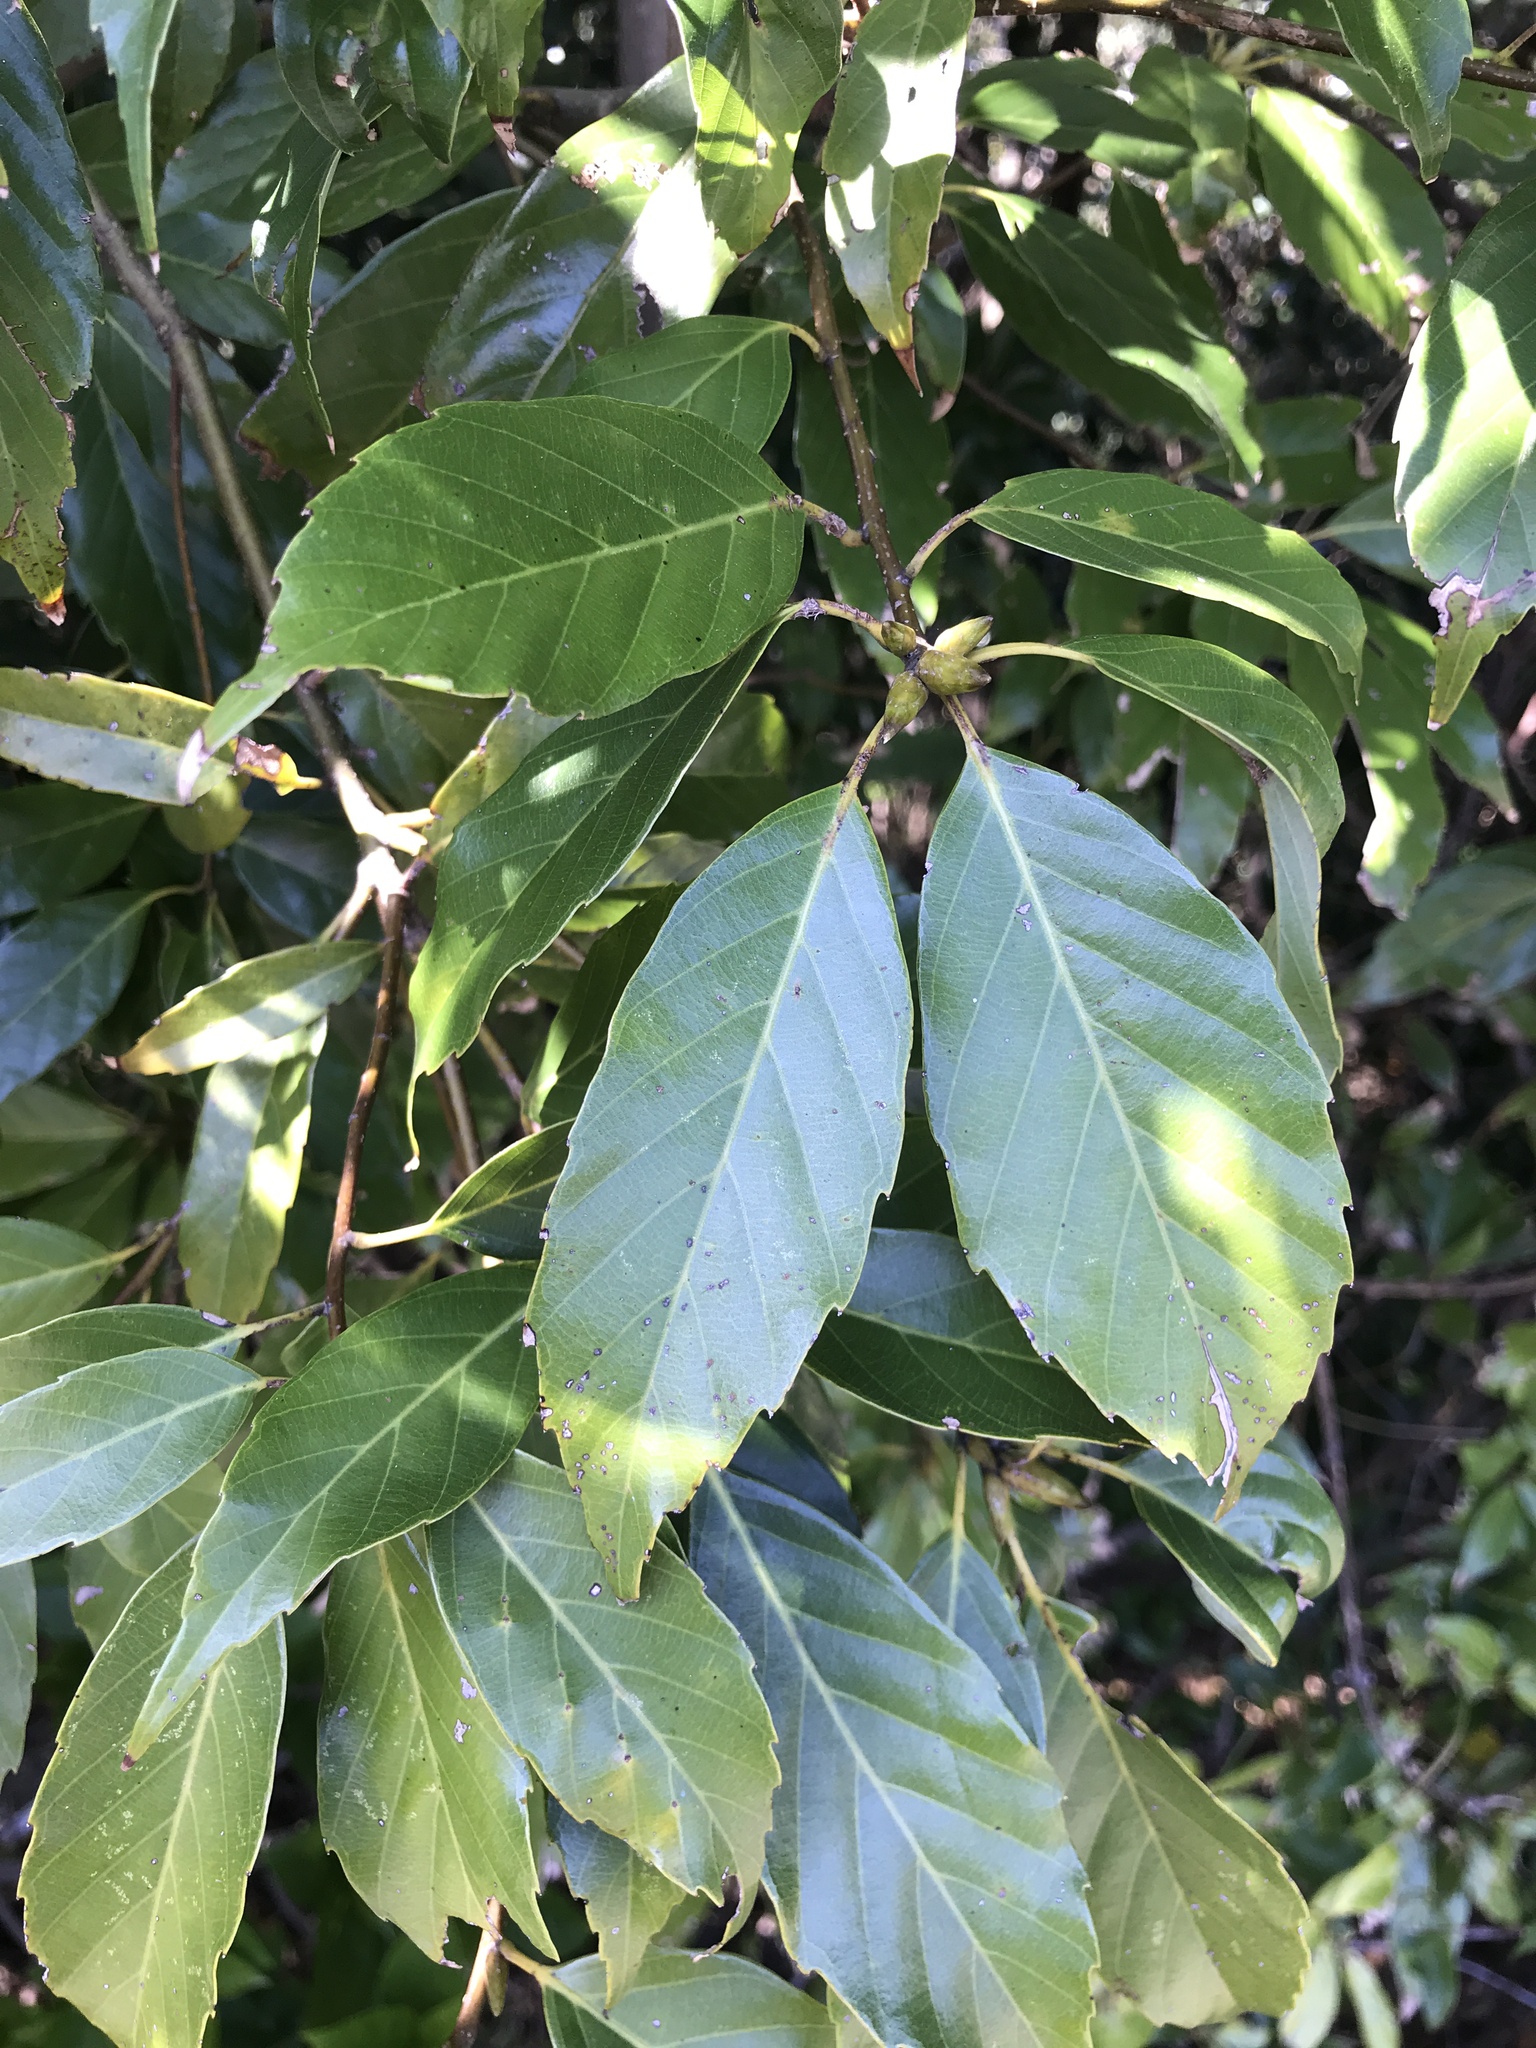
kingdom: Plantae
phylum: Tracheophyta
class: Magnoliopsida
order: Fagales
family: Fagaceae
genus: Quercus
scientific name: Quercus glauca
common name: Ring-cup oak
